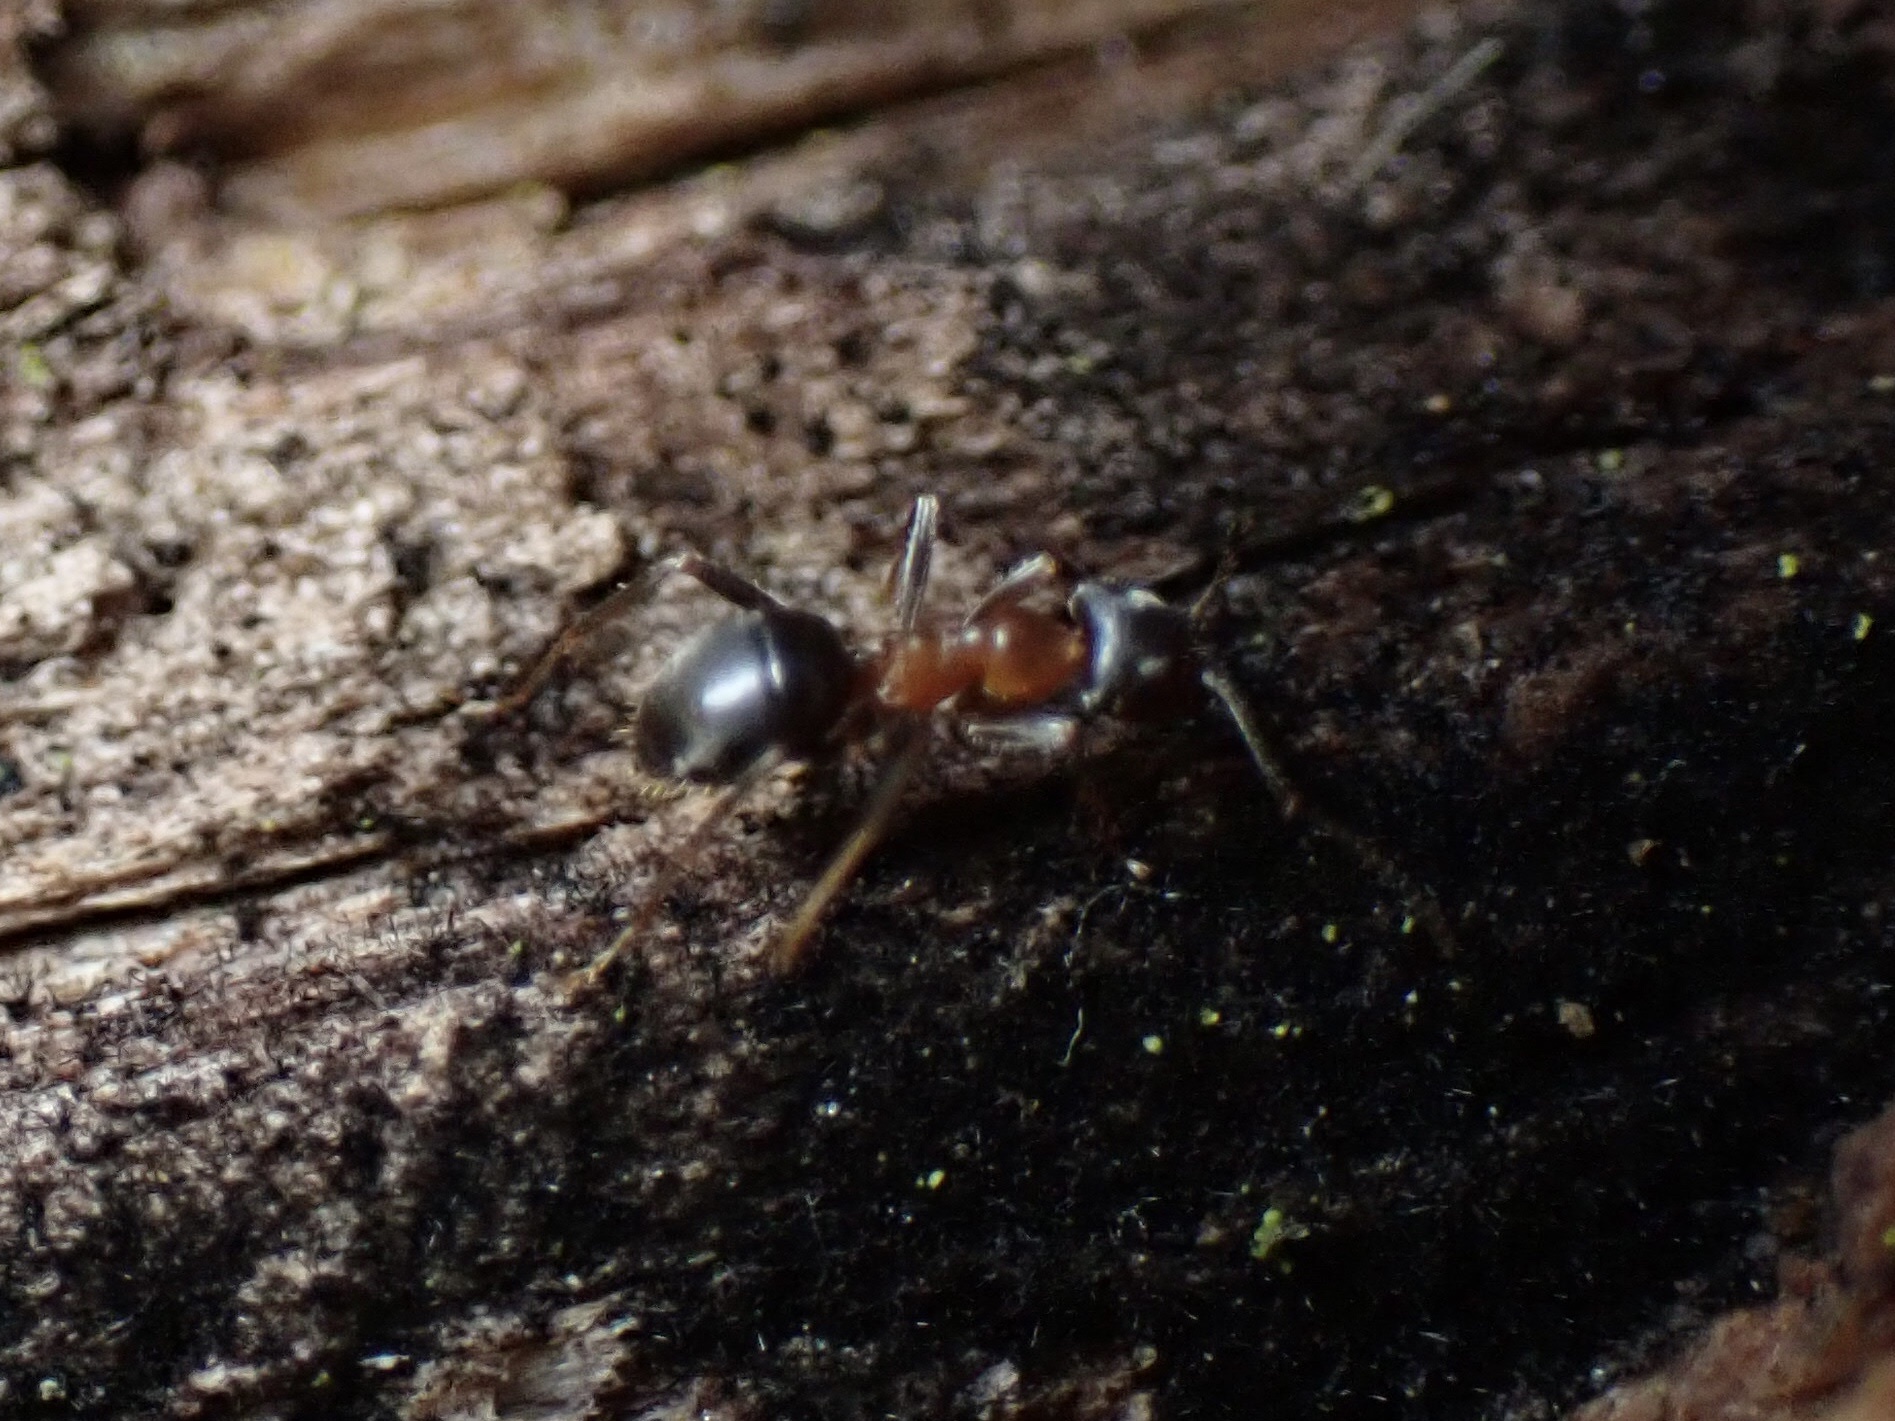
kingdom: Animalia
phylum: Arthropoda
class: Insecta
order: Hymenoptera
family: Formicidae
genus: Lasius
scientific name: Lasius emarginatus
